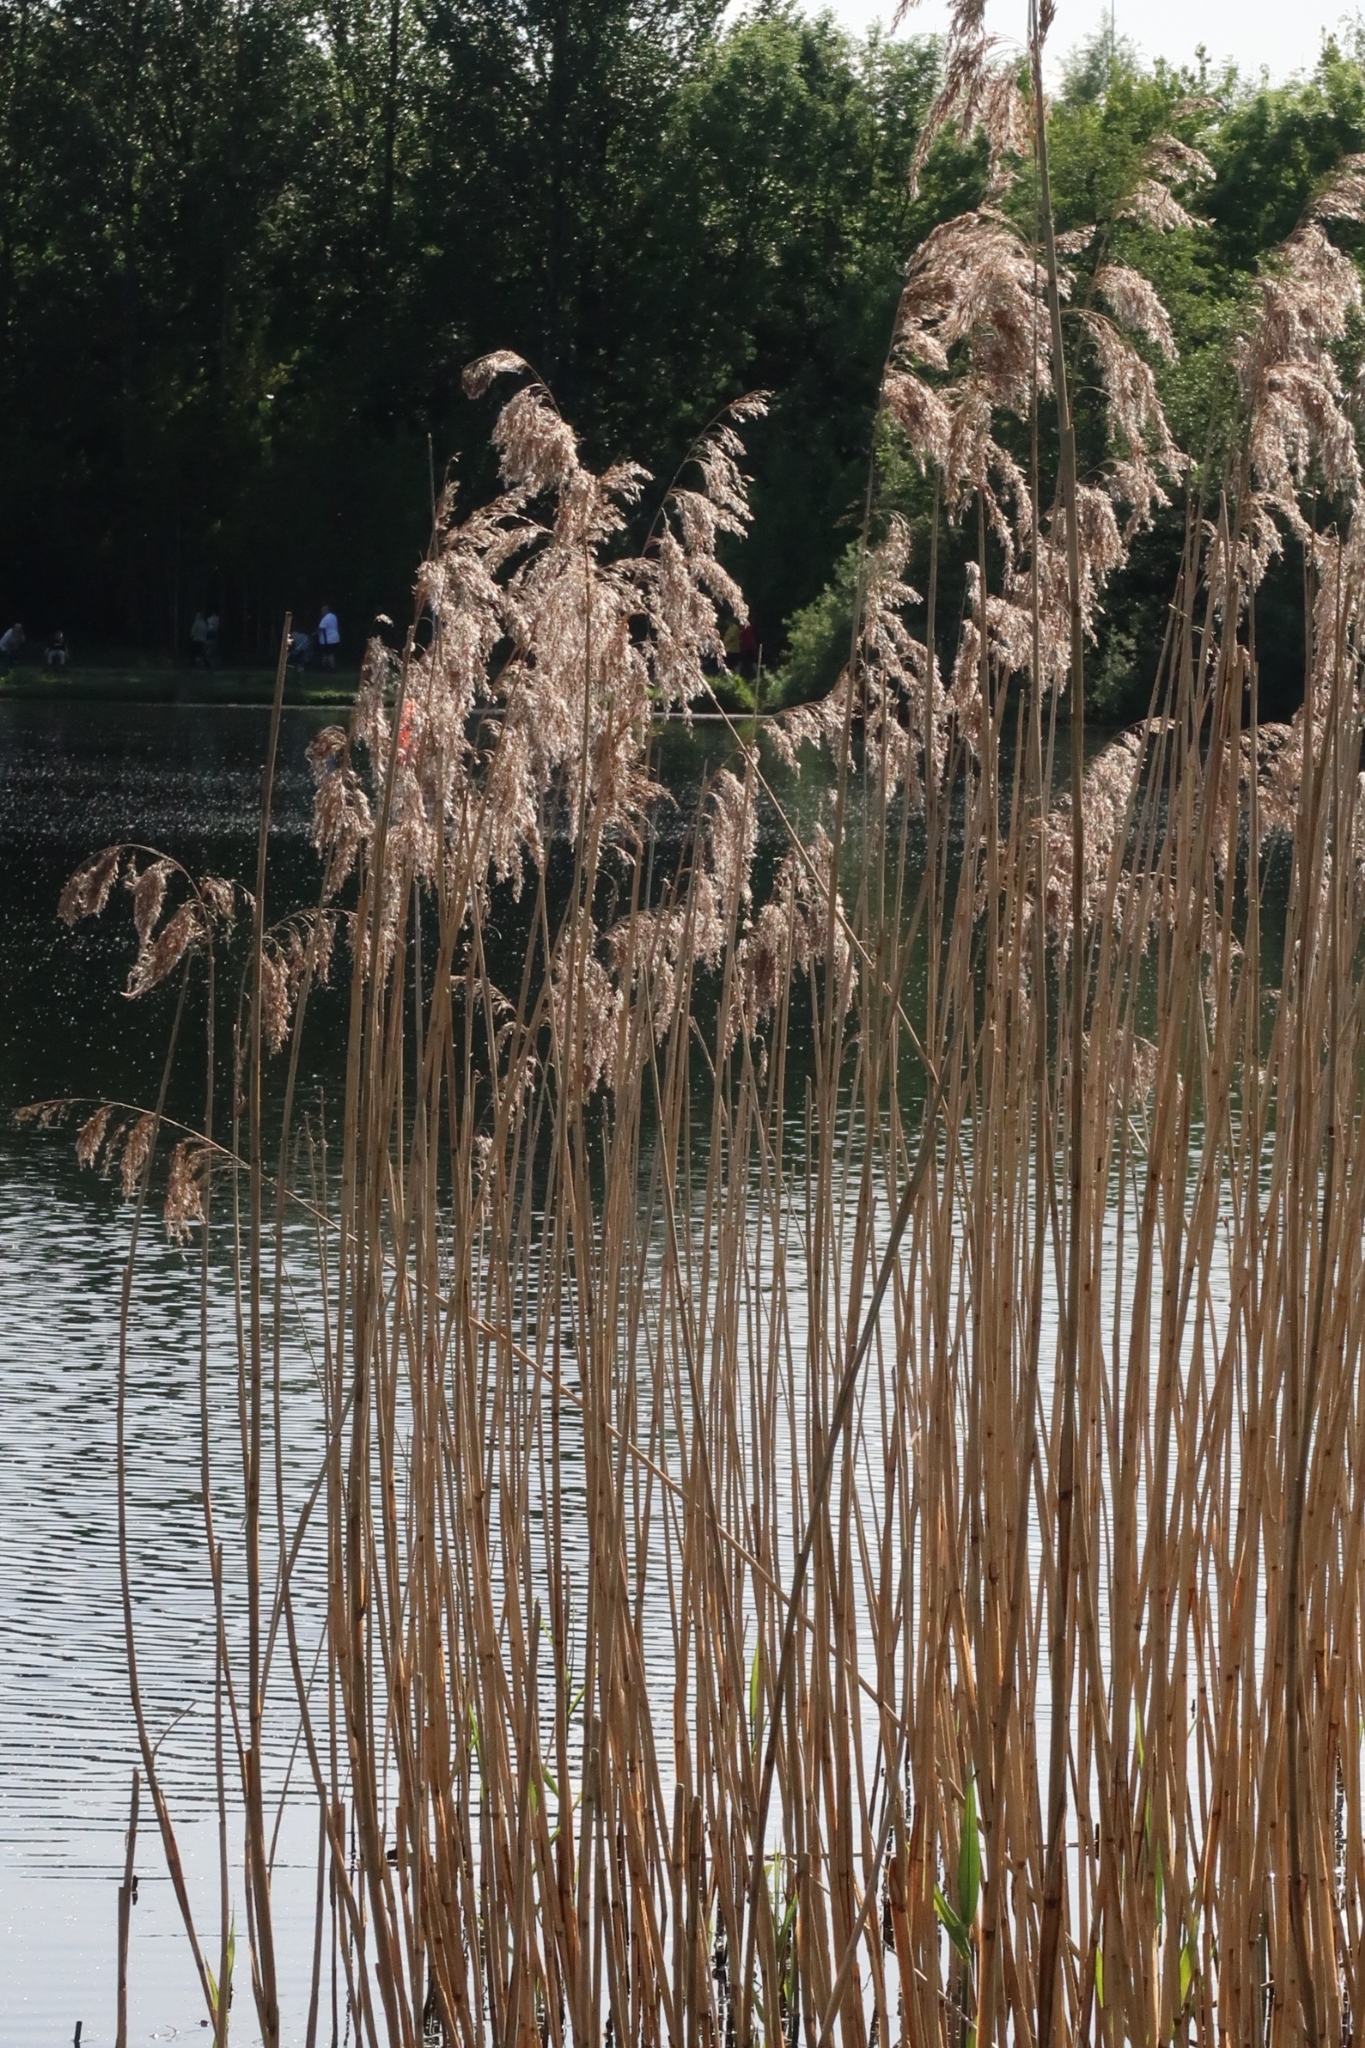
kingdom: Plantae
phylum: Tracheophyta
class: Liliopsida
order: Poales
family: Poaceae
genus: Phragmites
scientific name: Phragmites australis
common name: Common reed
